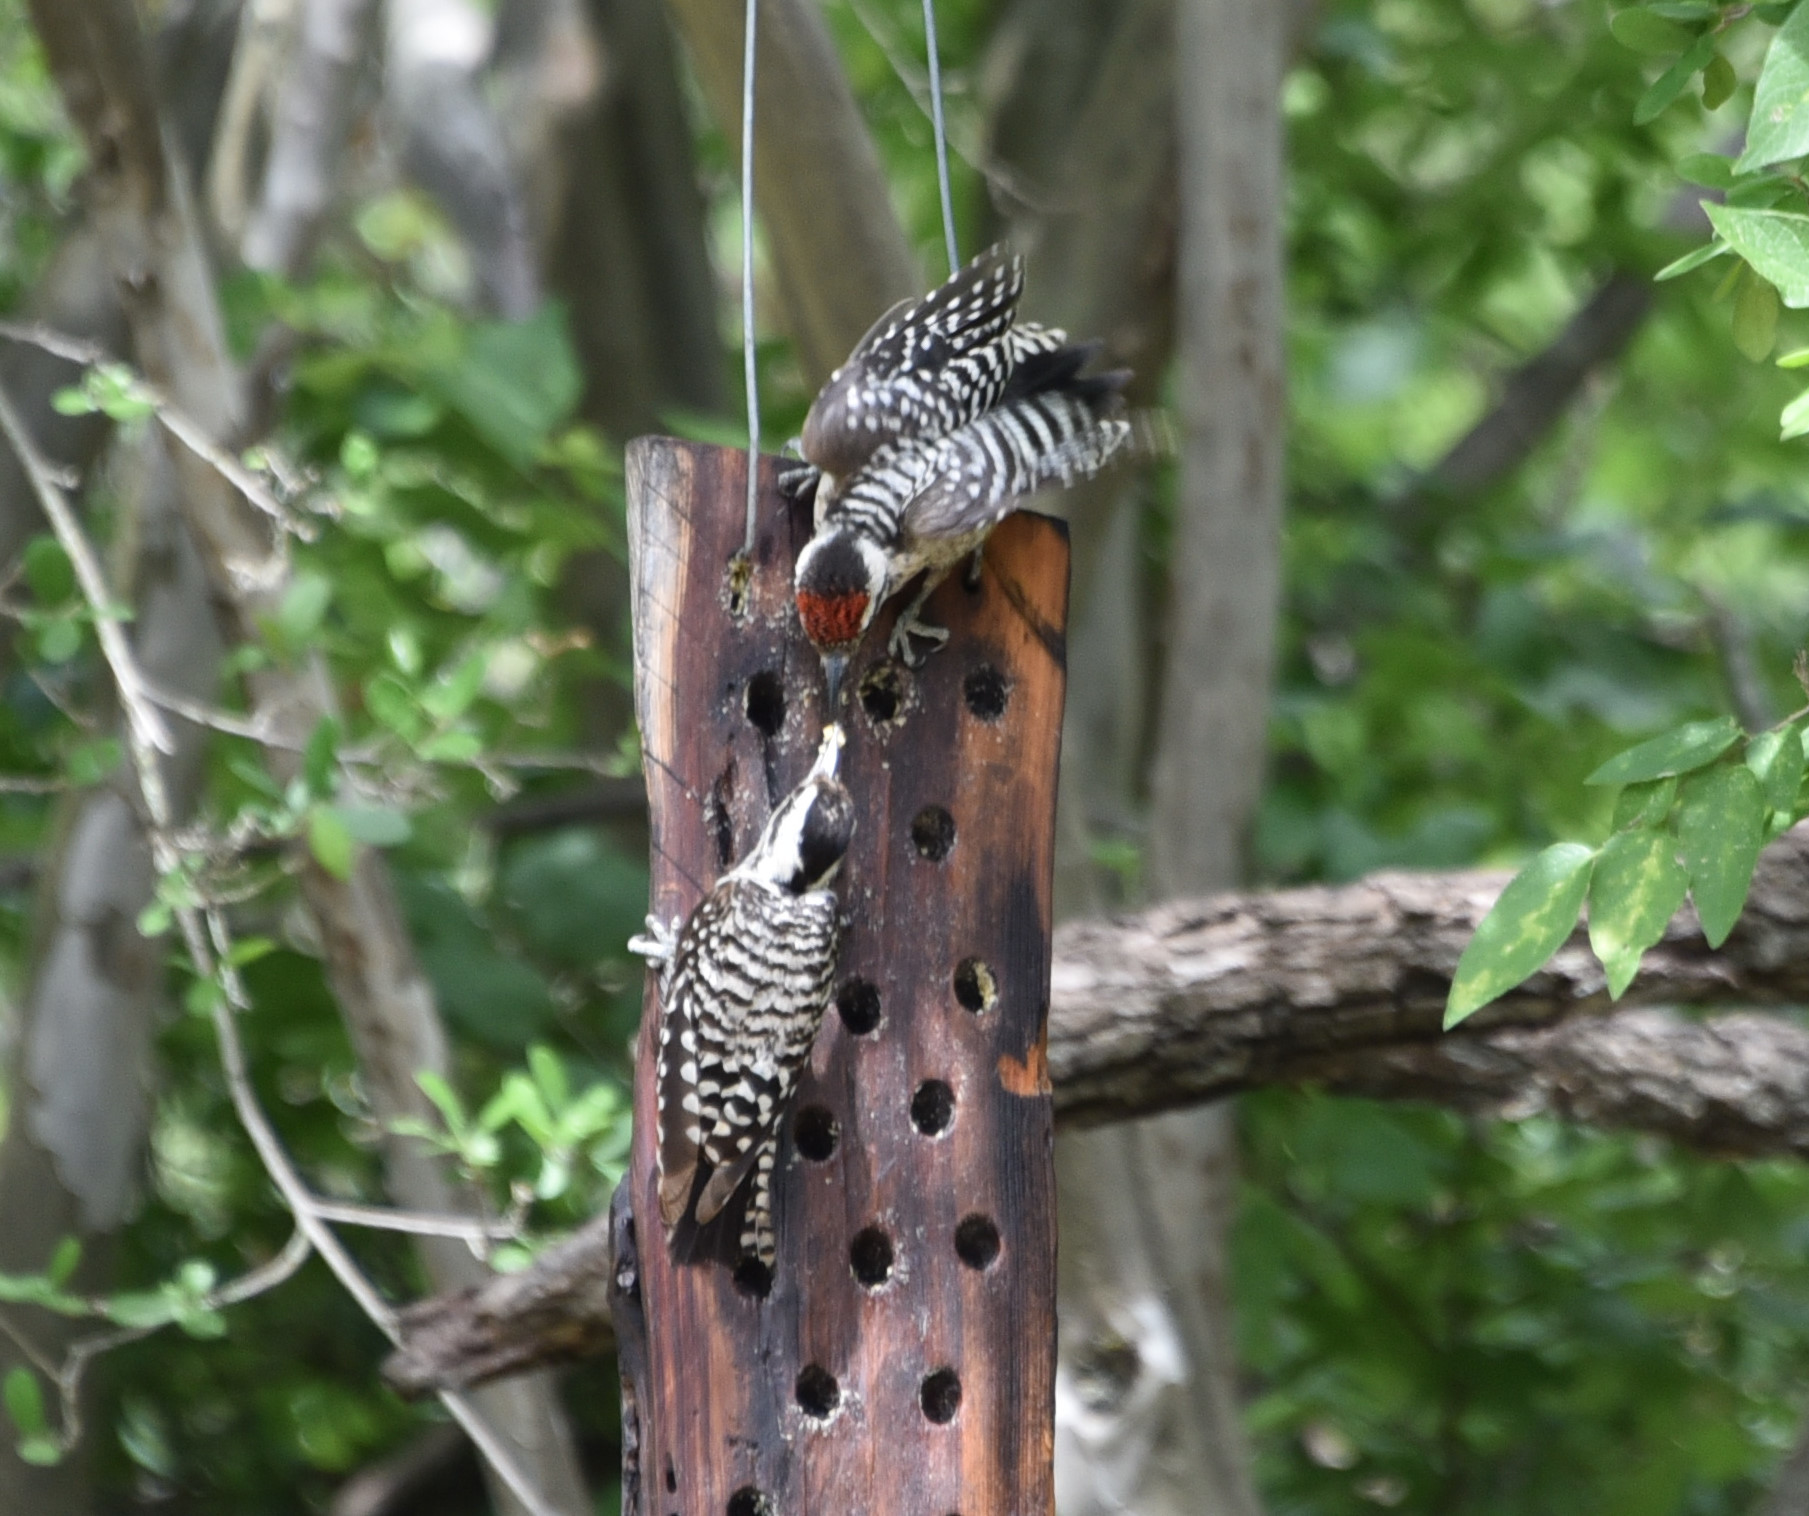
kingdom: Animalia
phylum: Chordata
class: Aves
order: Piciformes
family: Picidae
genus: Dryobates
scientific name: Dryobates scalaris
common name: Ladder-backed woodpecker
